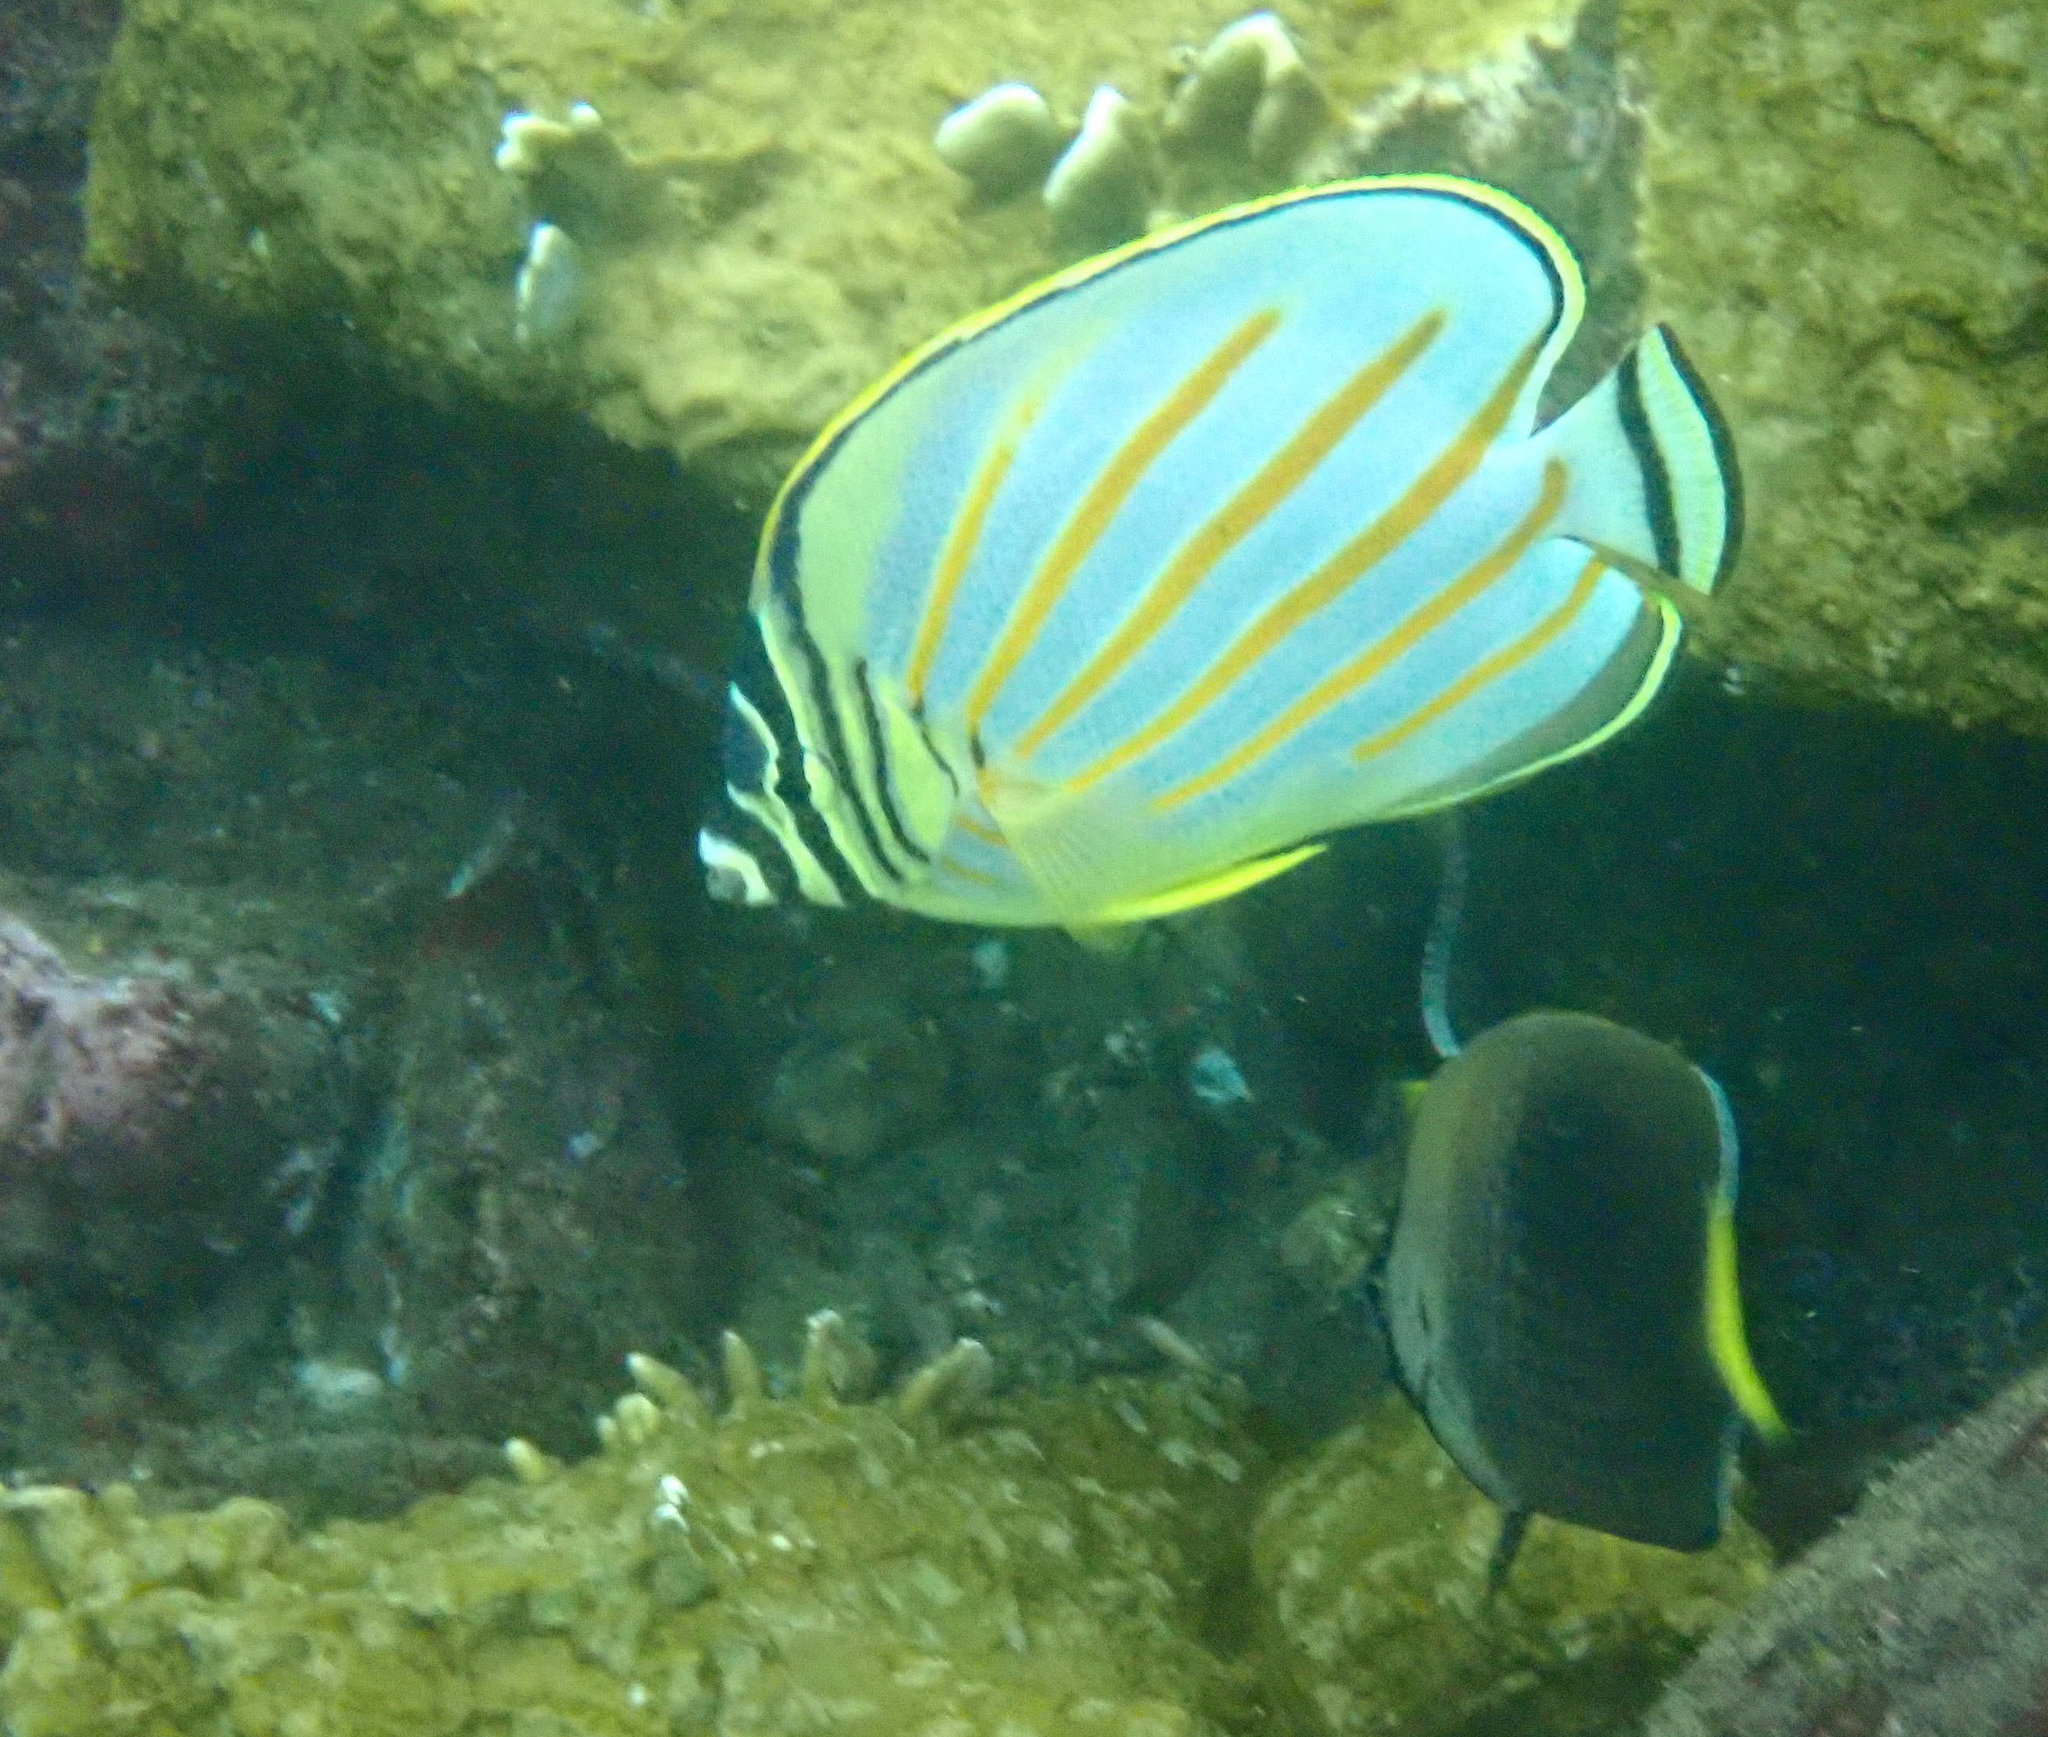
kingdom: Animalia
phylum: Chordata
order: Perciformes
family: Chaetodontidae
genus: Chaetodon
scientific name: Chaetodon ornatissimus
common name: Ornate butterflyfish
